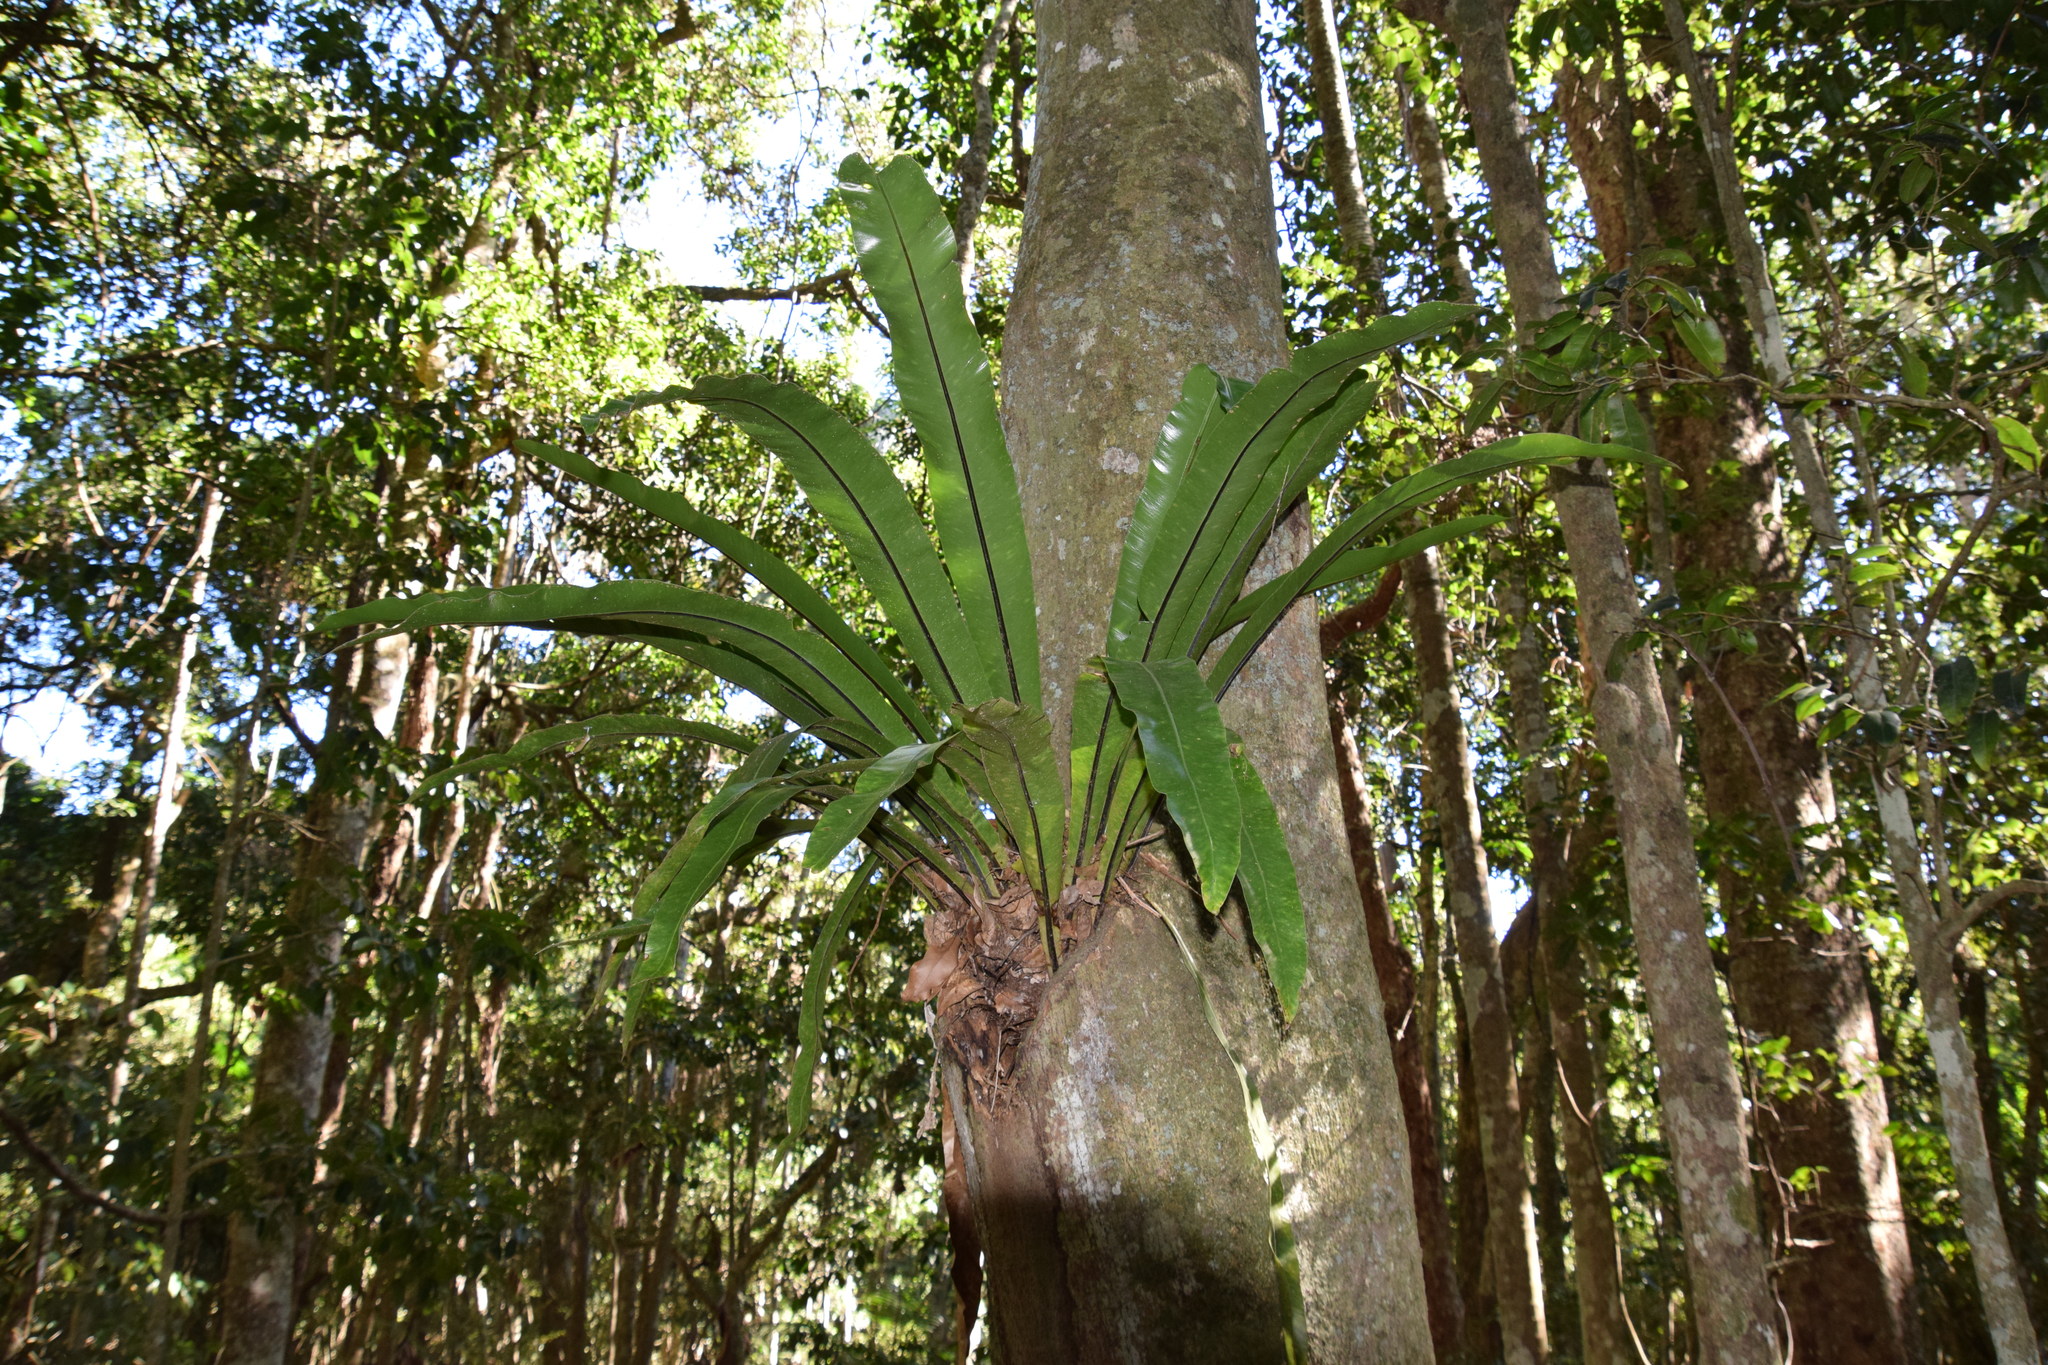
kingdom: Plantae
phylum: Tracheophyta
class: Polypodiopsida
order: Polypodiales
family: Aspleniaceae
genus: Asplenium
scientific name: Asplenium australasicum
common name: Bird's-nest fern
